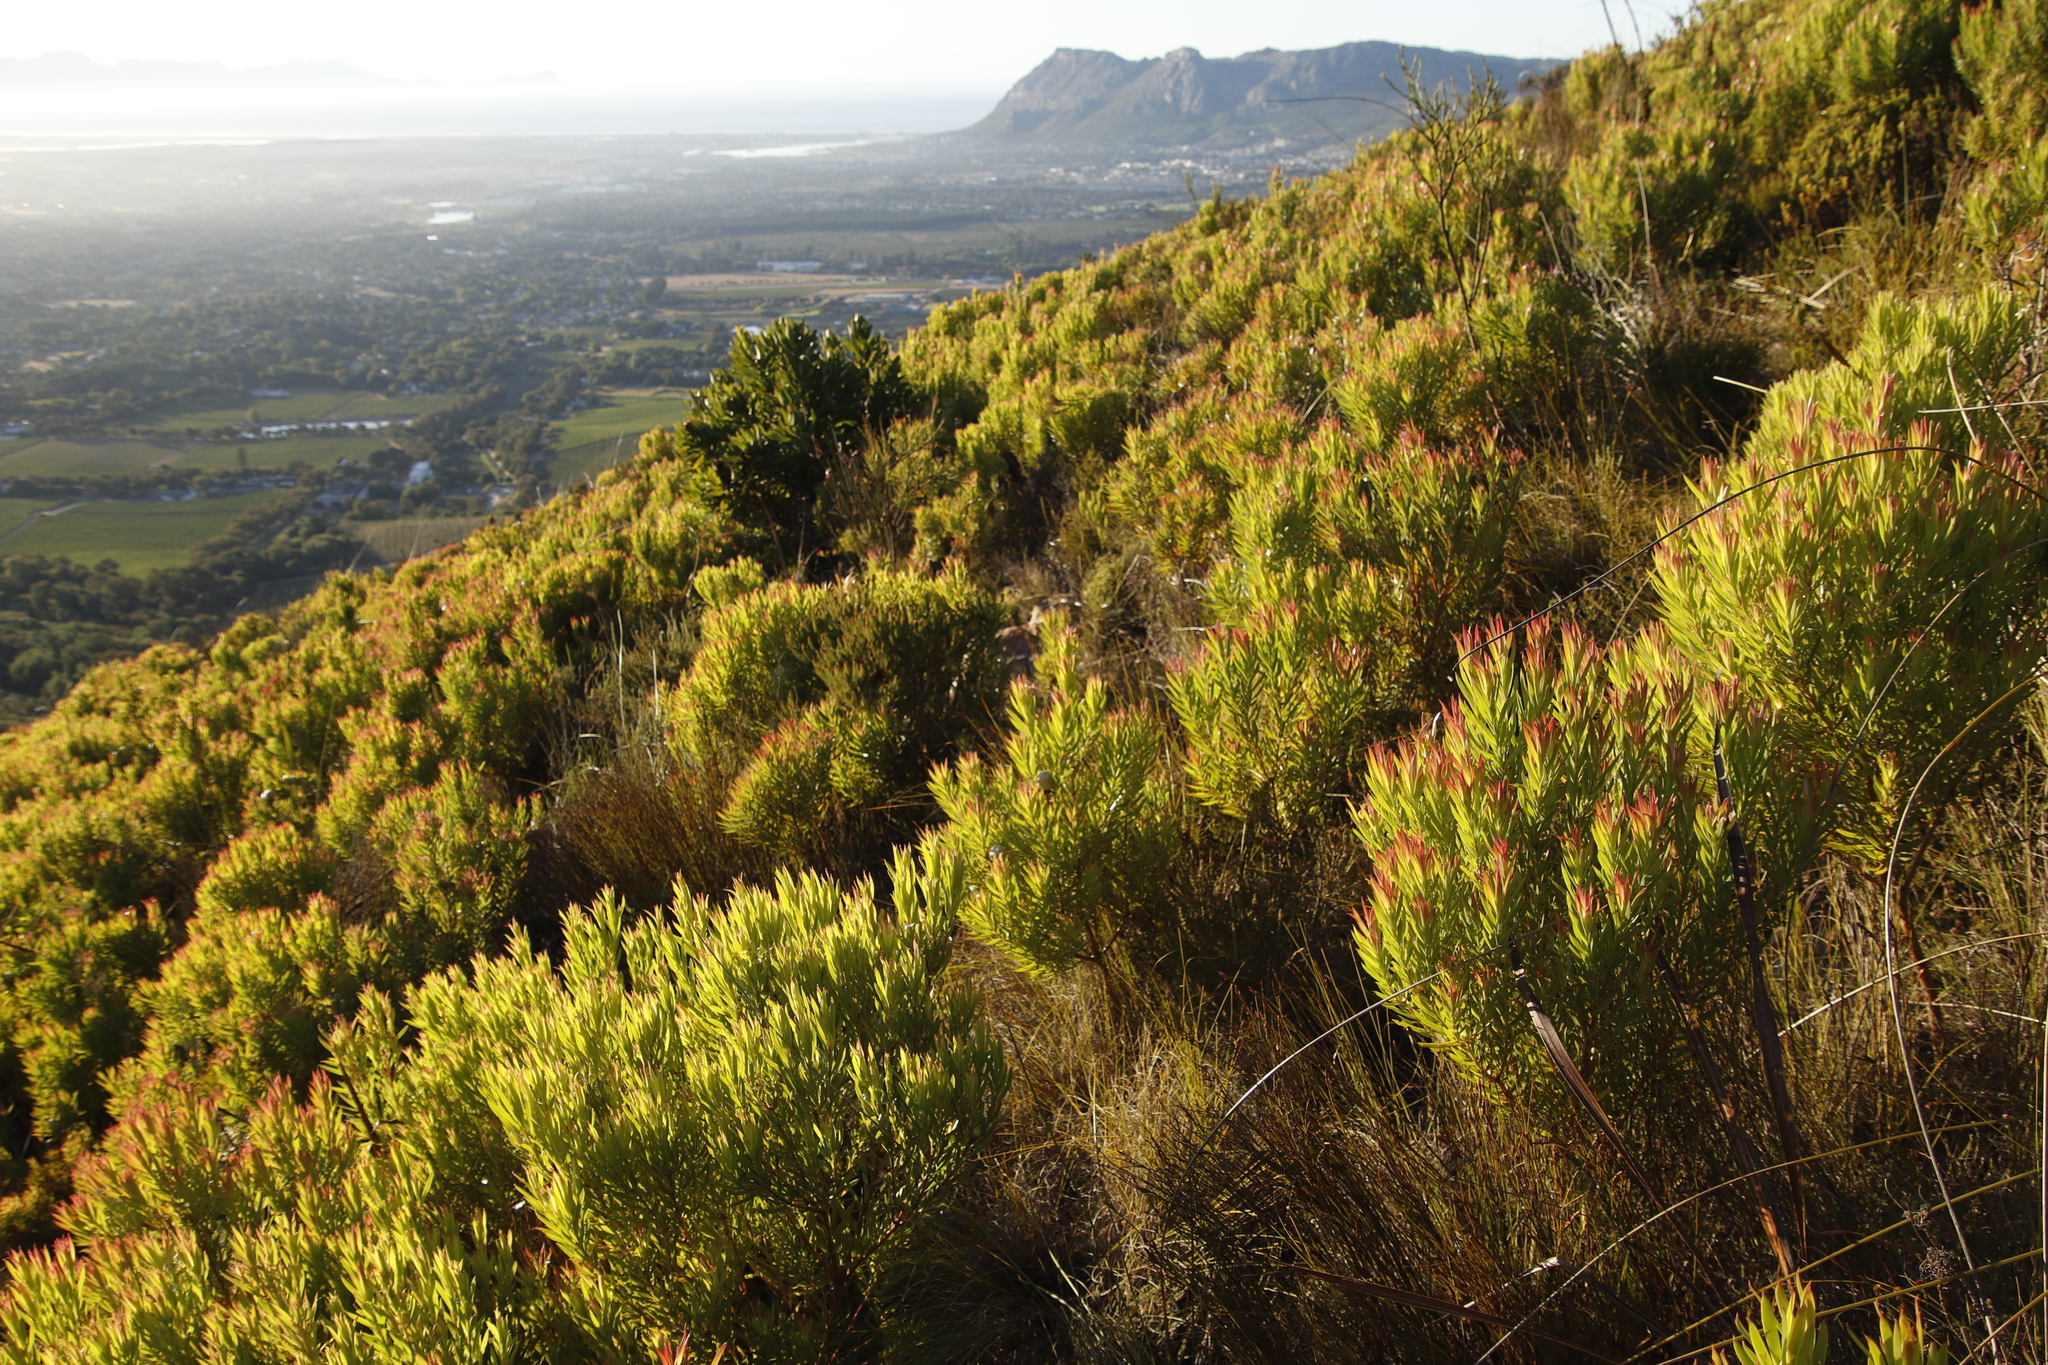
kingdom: Plantae
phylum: Tracheophyta
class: Magnoliopsida
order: Proteales
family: Proteaceae
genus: Protea
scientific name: Protea lepidocarpodendron
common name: Black-bearded protea
